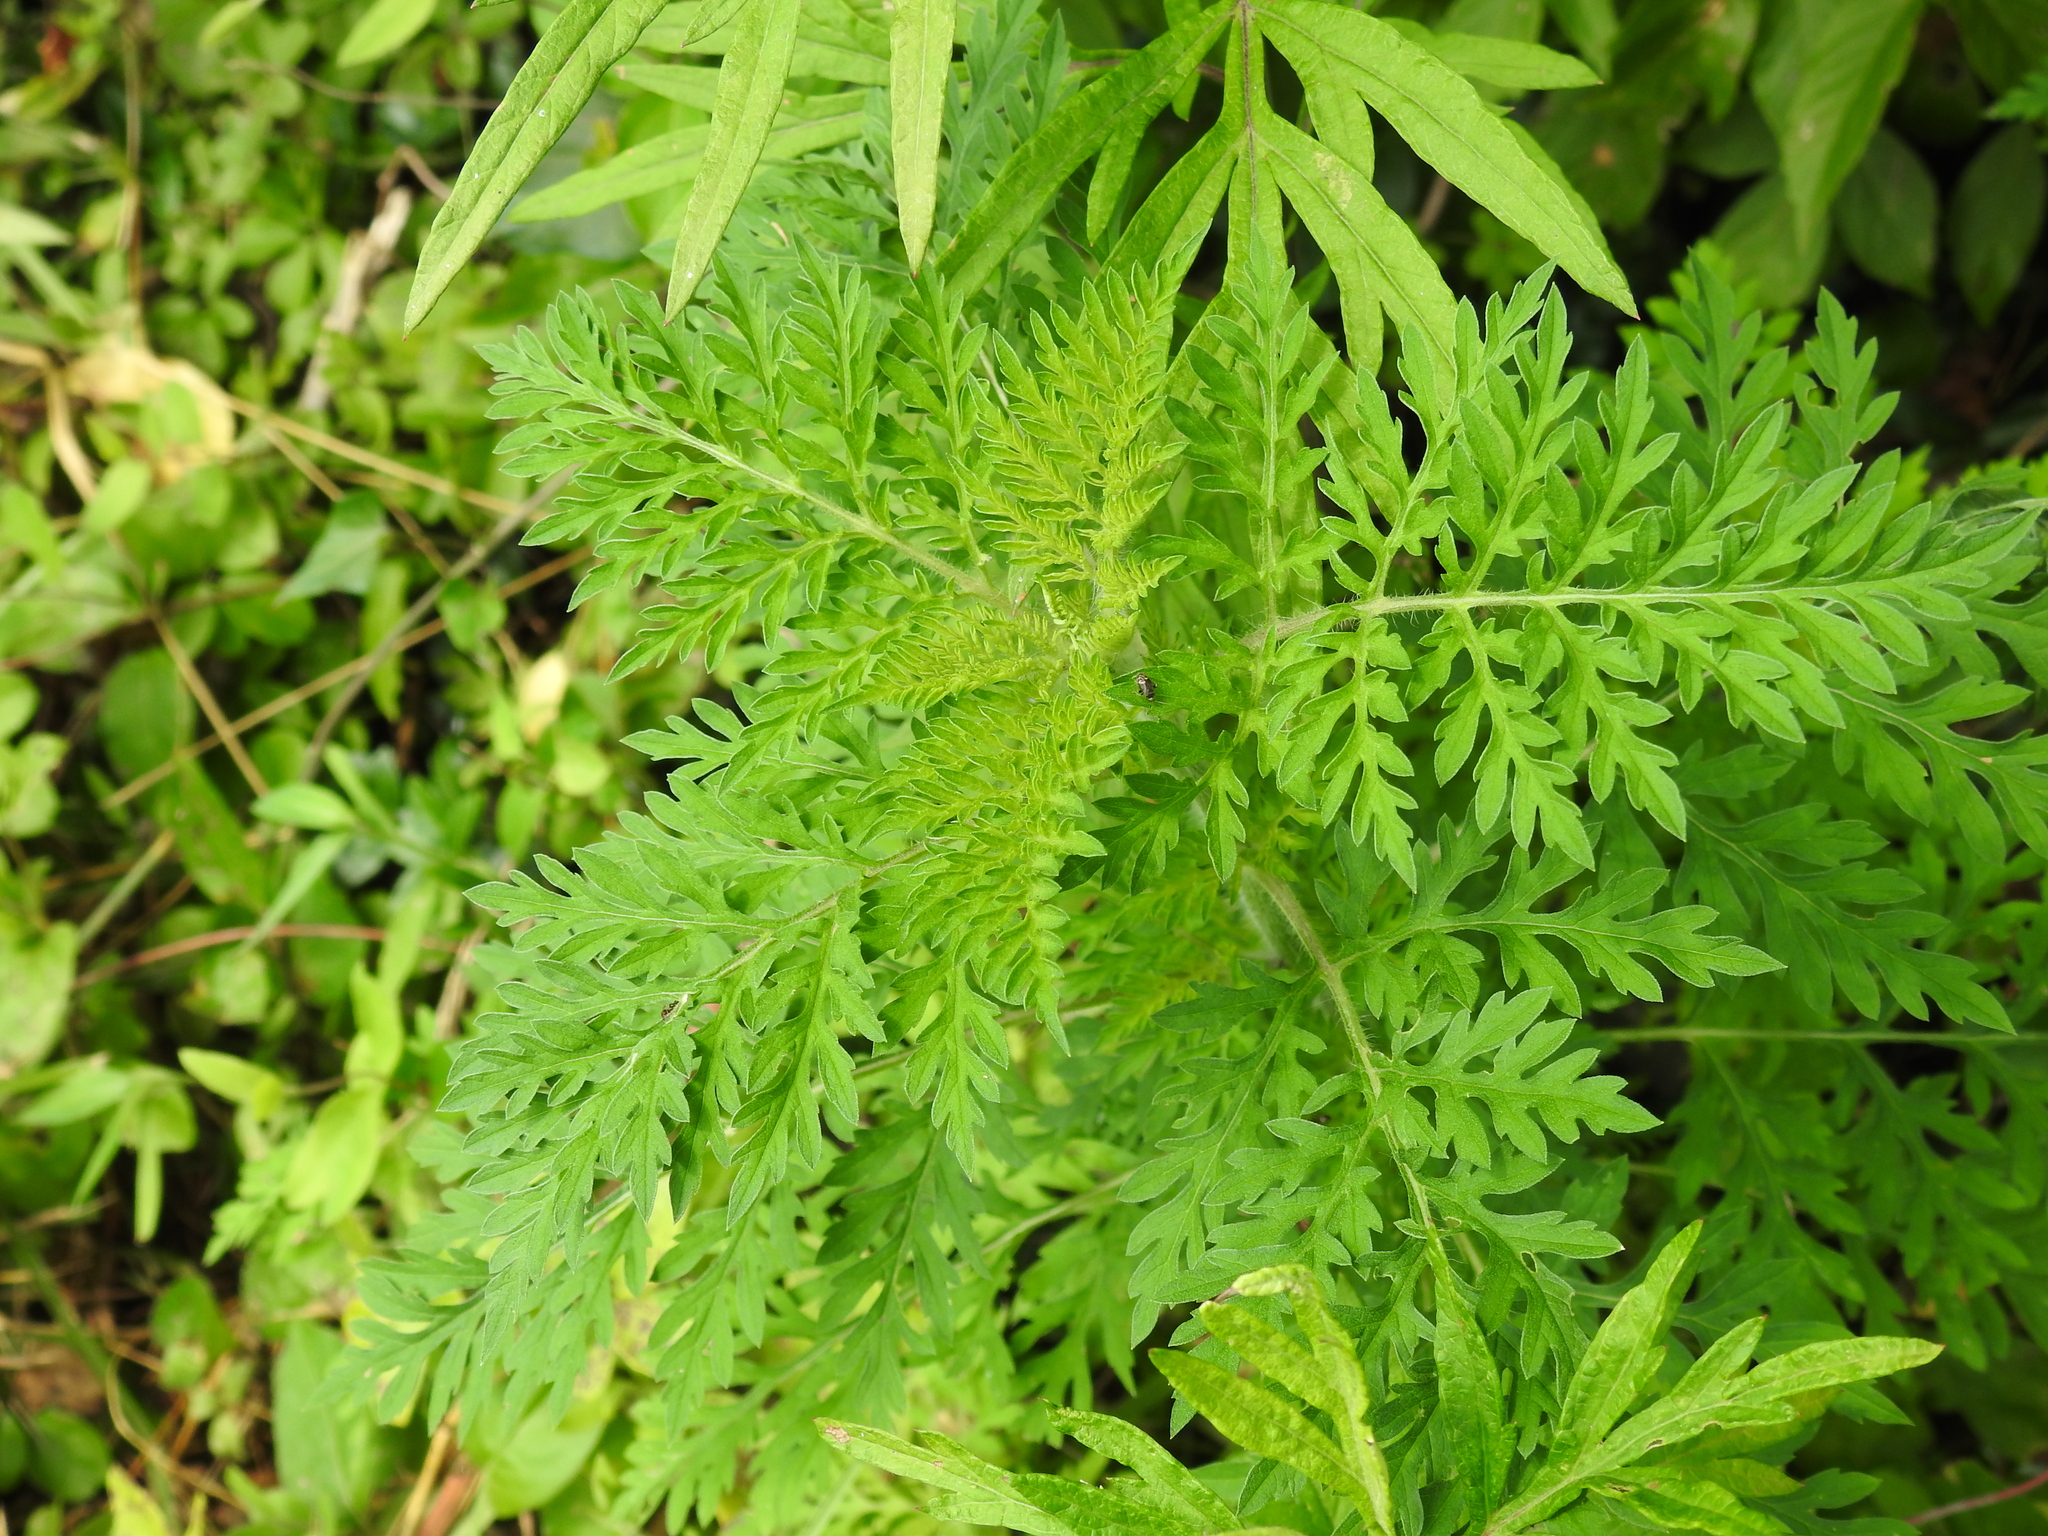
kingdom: Plantae
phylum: Tracheophyta
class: Magnoliopsida
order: Asterales
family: Asteraceae
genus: Ambrosia
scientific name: Ambrosia artemisiifolia
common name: Annual ragweed
